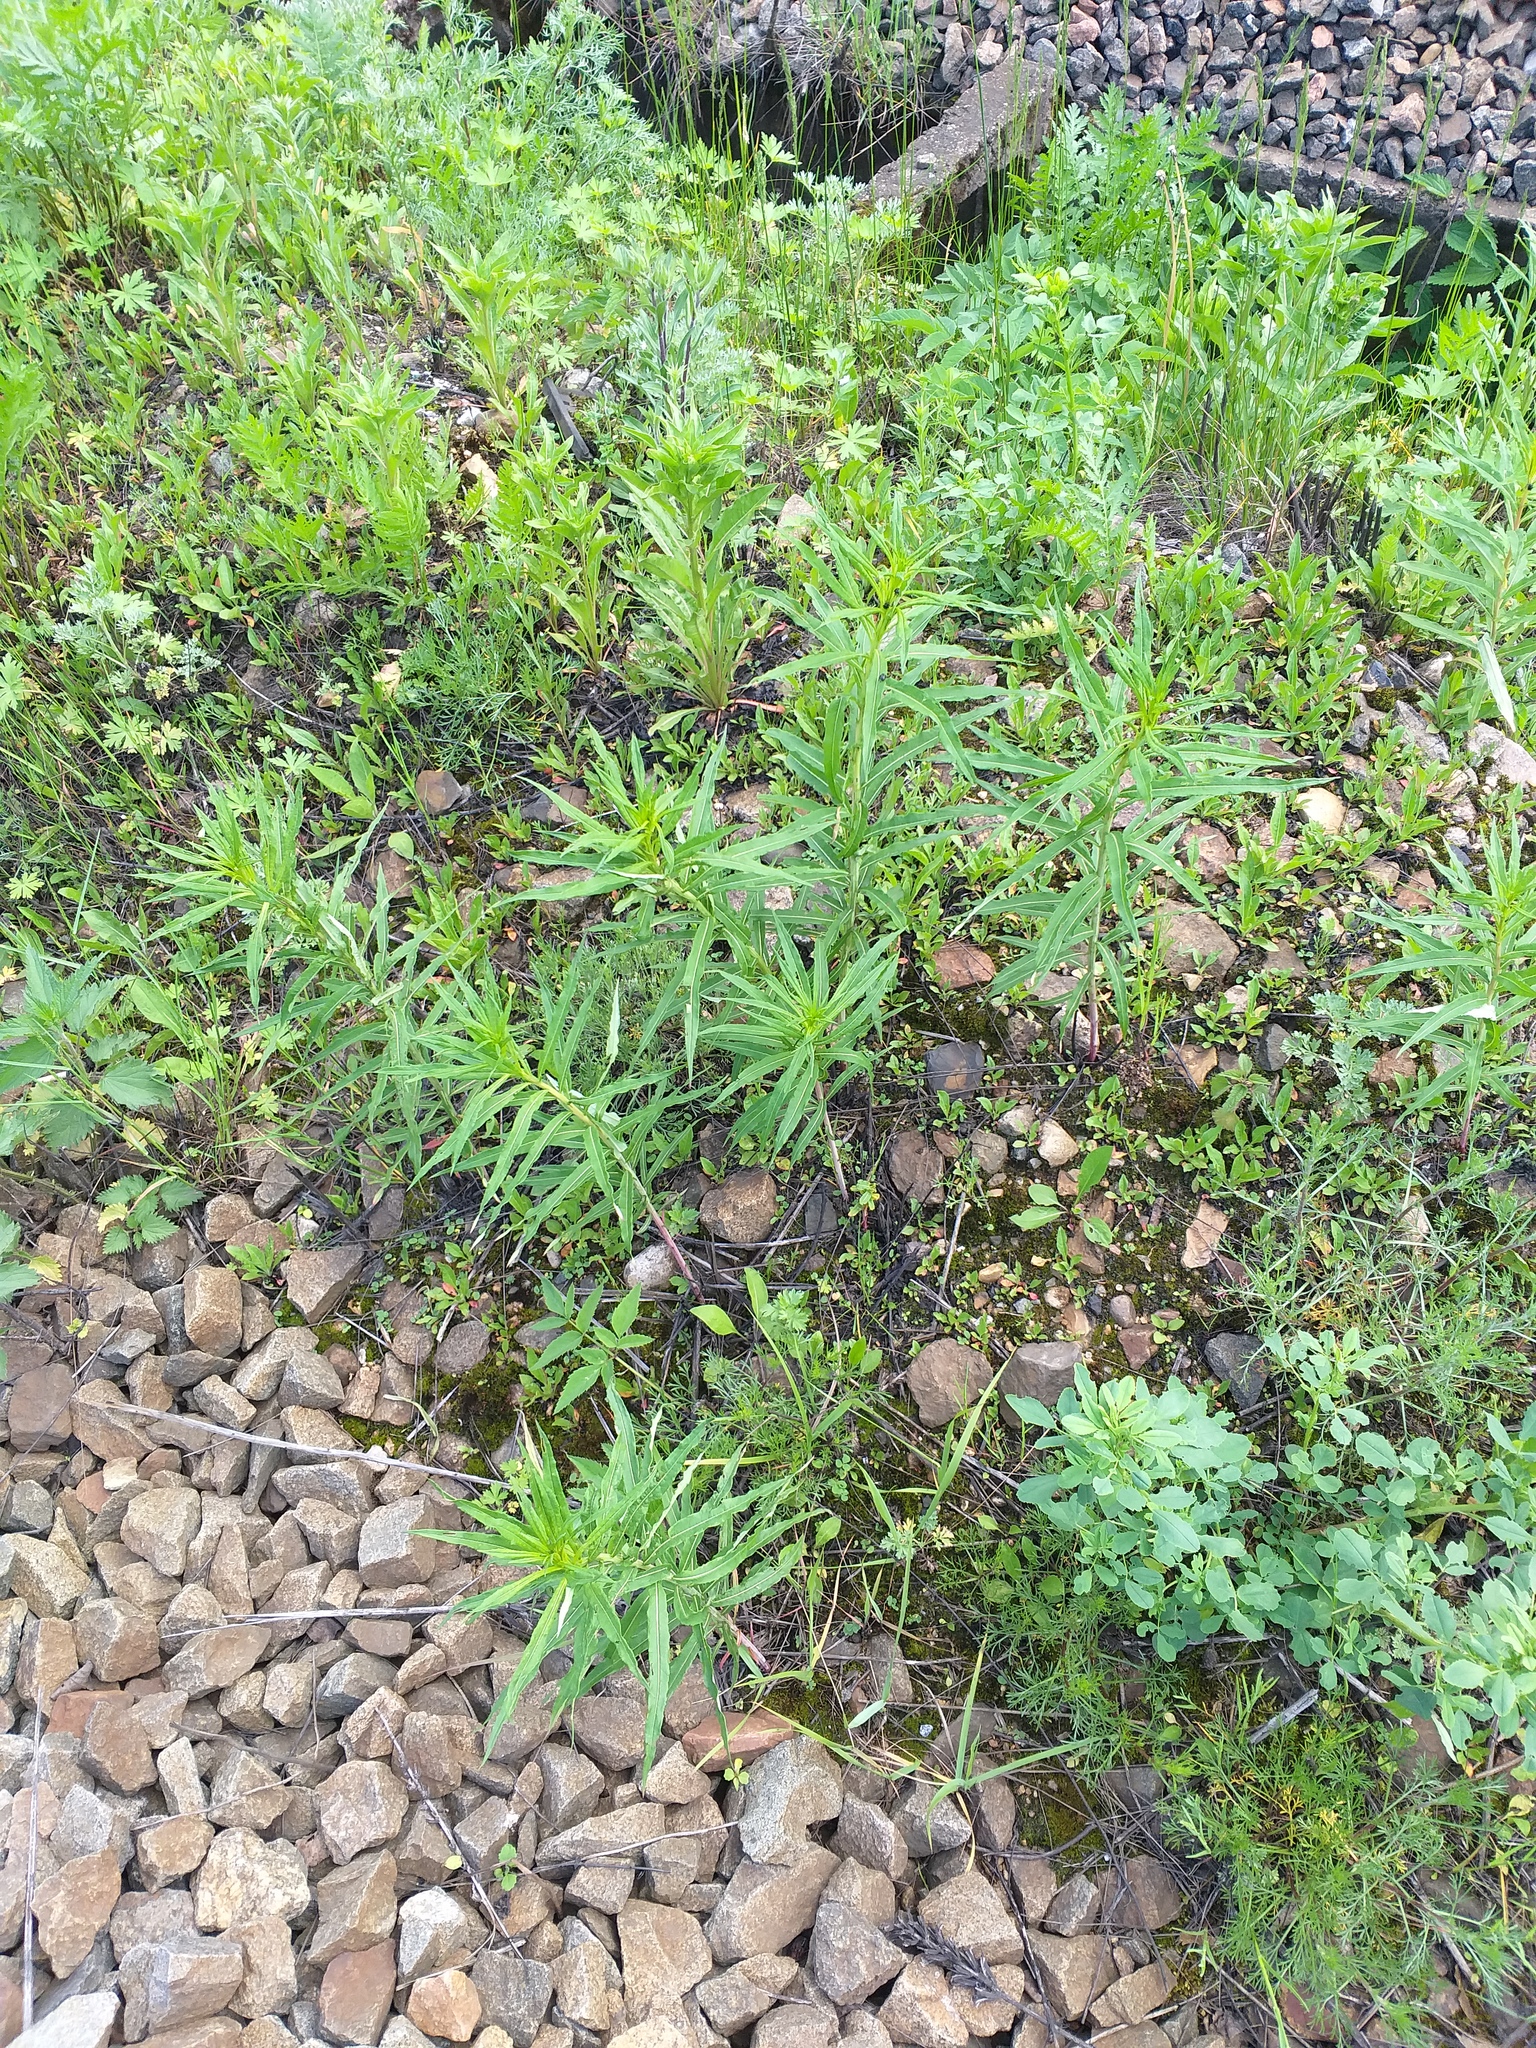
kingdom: Plantae
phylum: Tracheophyta
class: Magnoliopsida
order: Myrtales
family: Onagraceae
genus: Chamaenerion
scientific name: Chamaenerion angustifolium
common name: Fireweed
